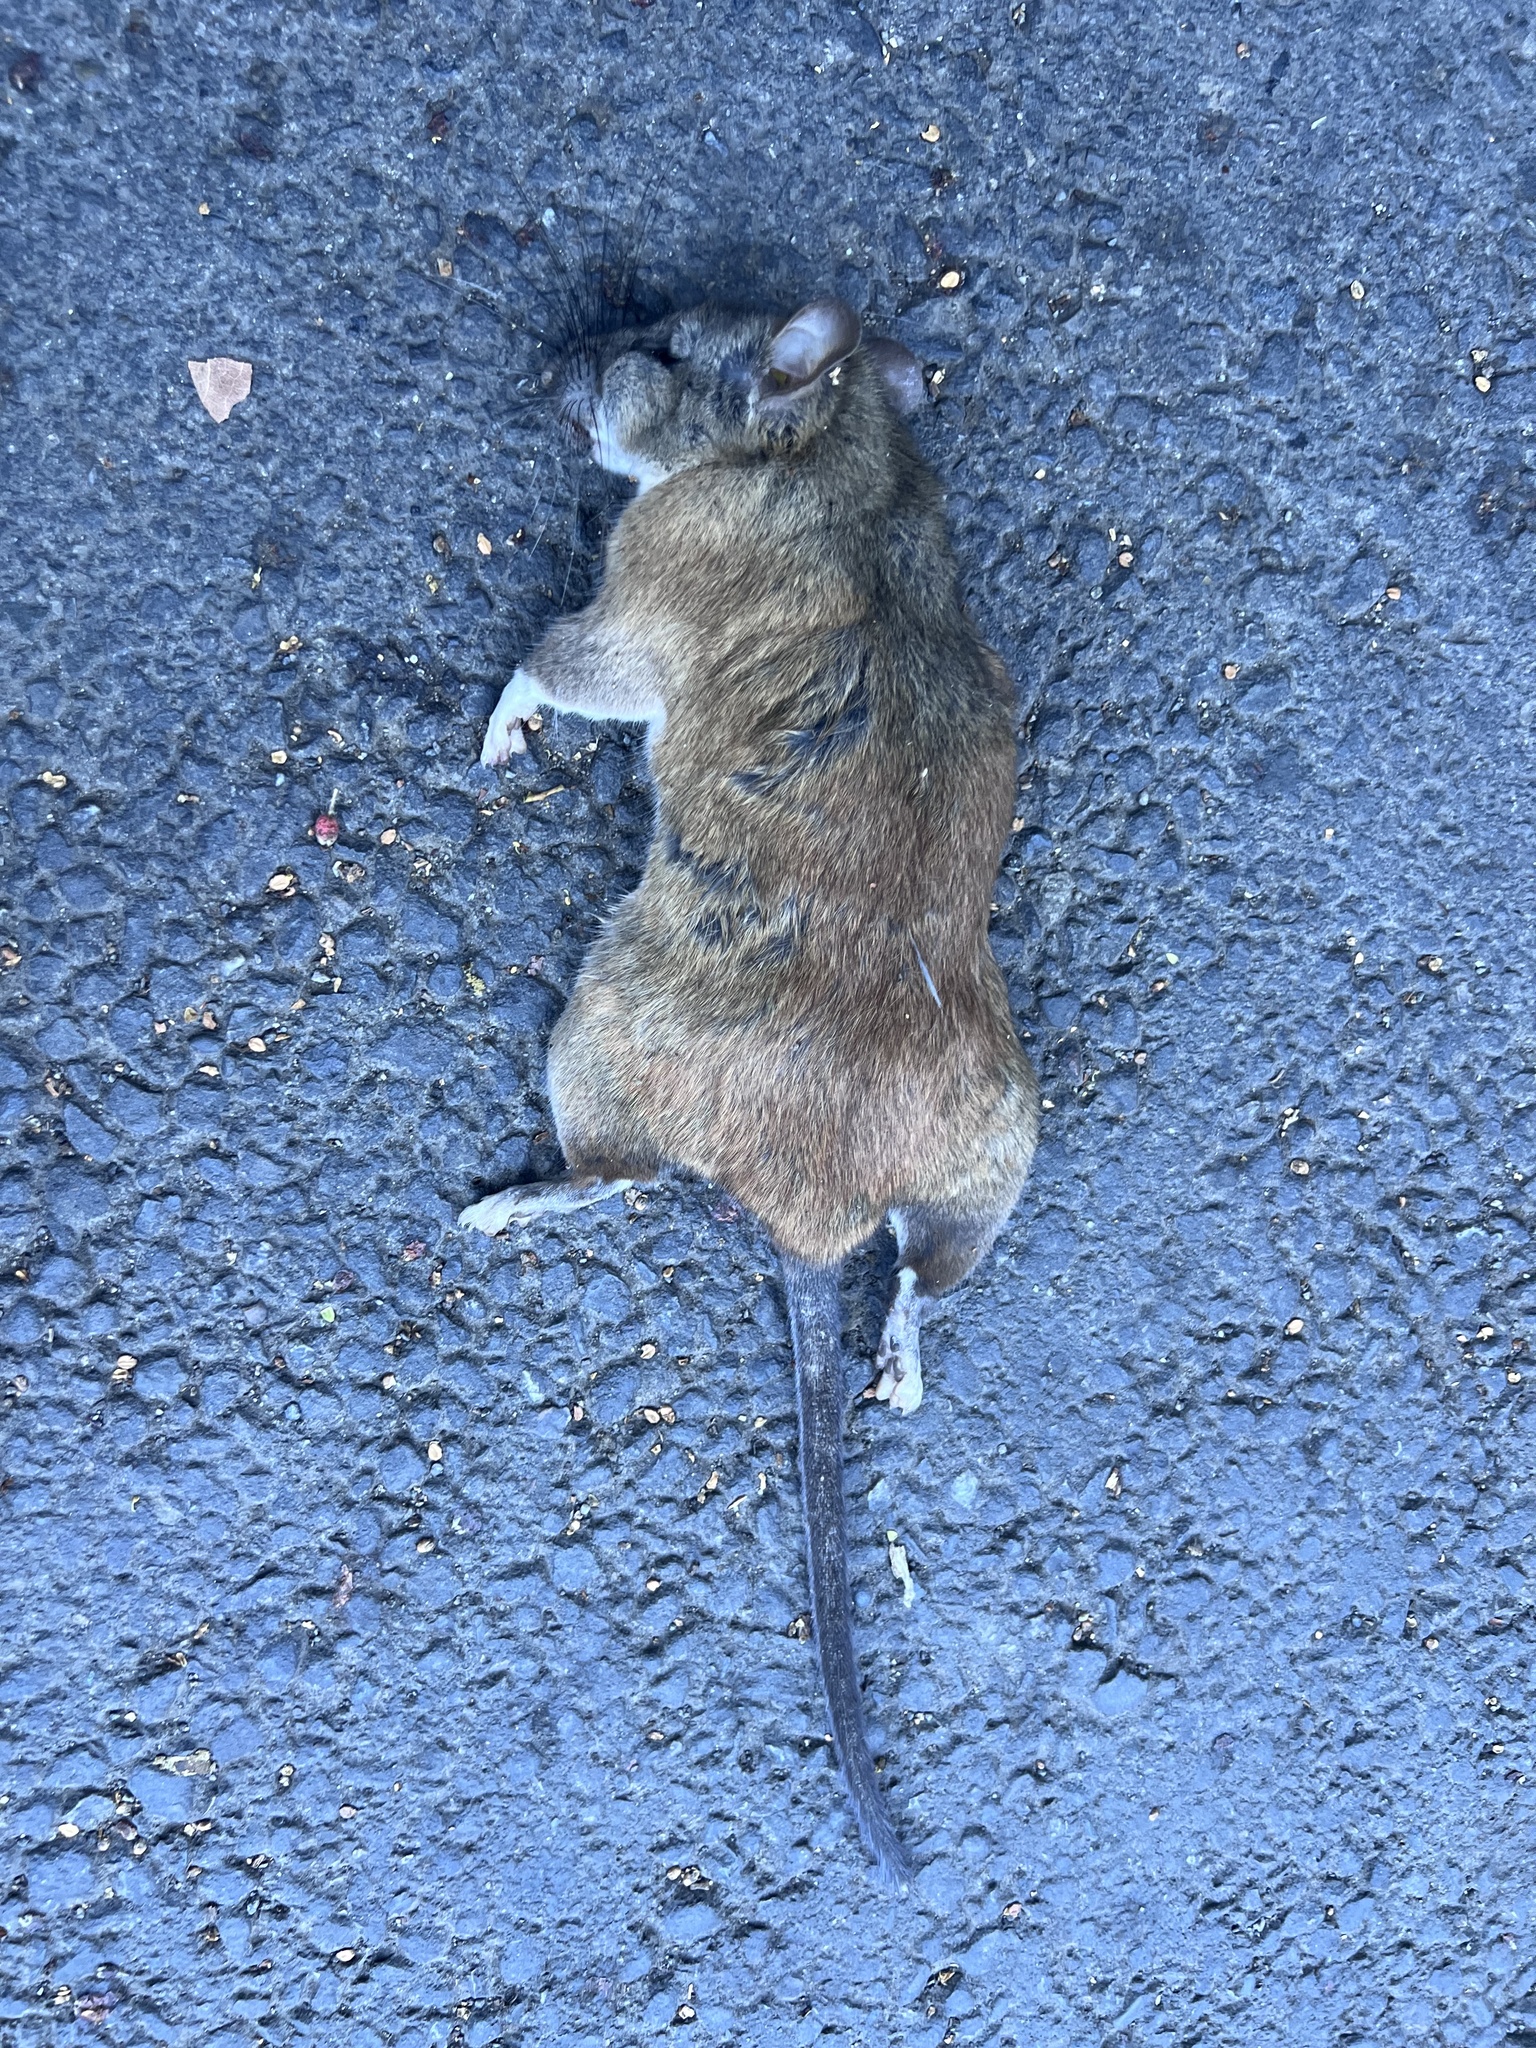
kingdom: Animalia
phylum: Chordata
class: Mammalia
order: Rodentia
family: Cricetidae
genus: Neotoma
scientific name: Neotoma fuscipes
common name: Dusky-footed woodrat
